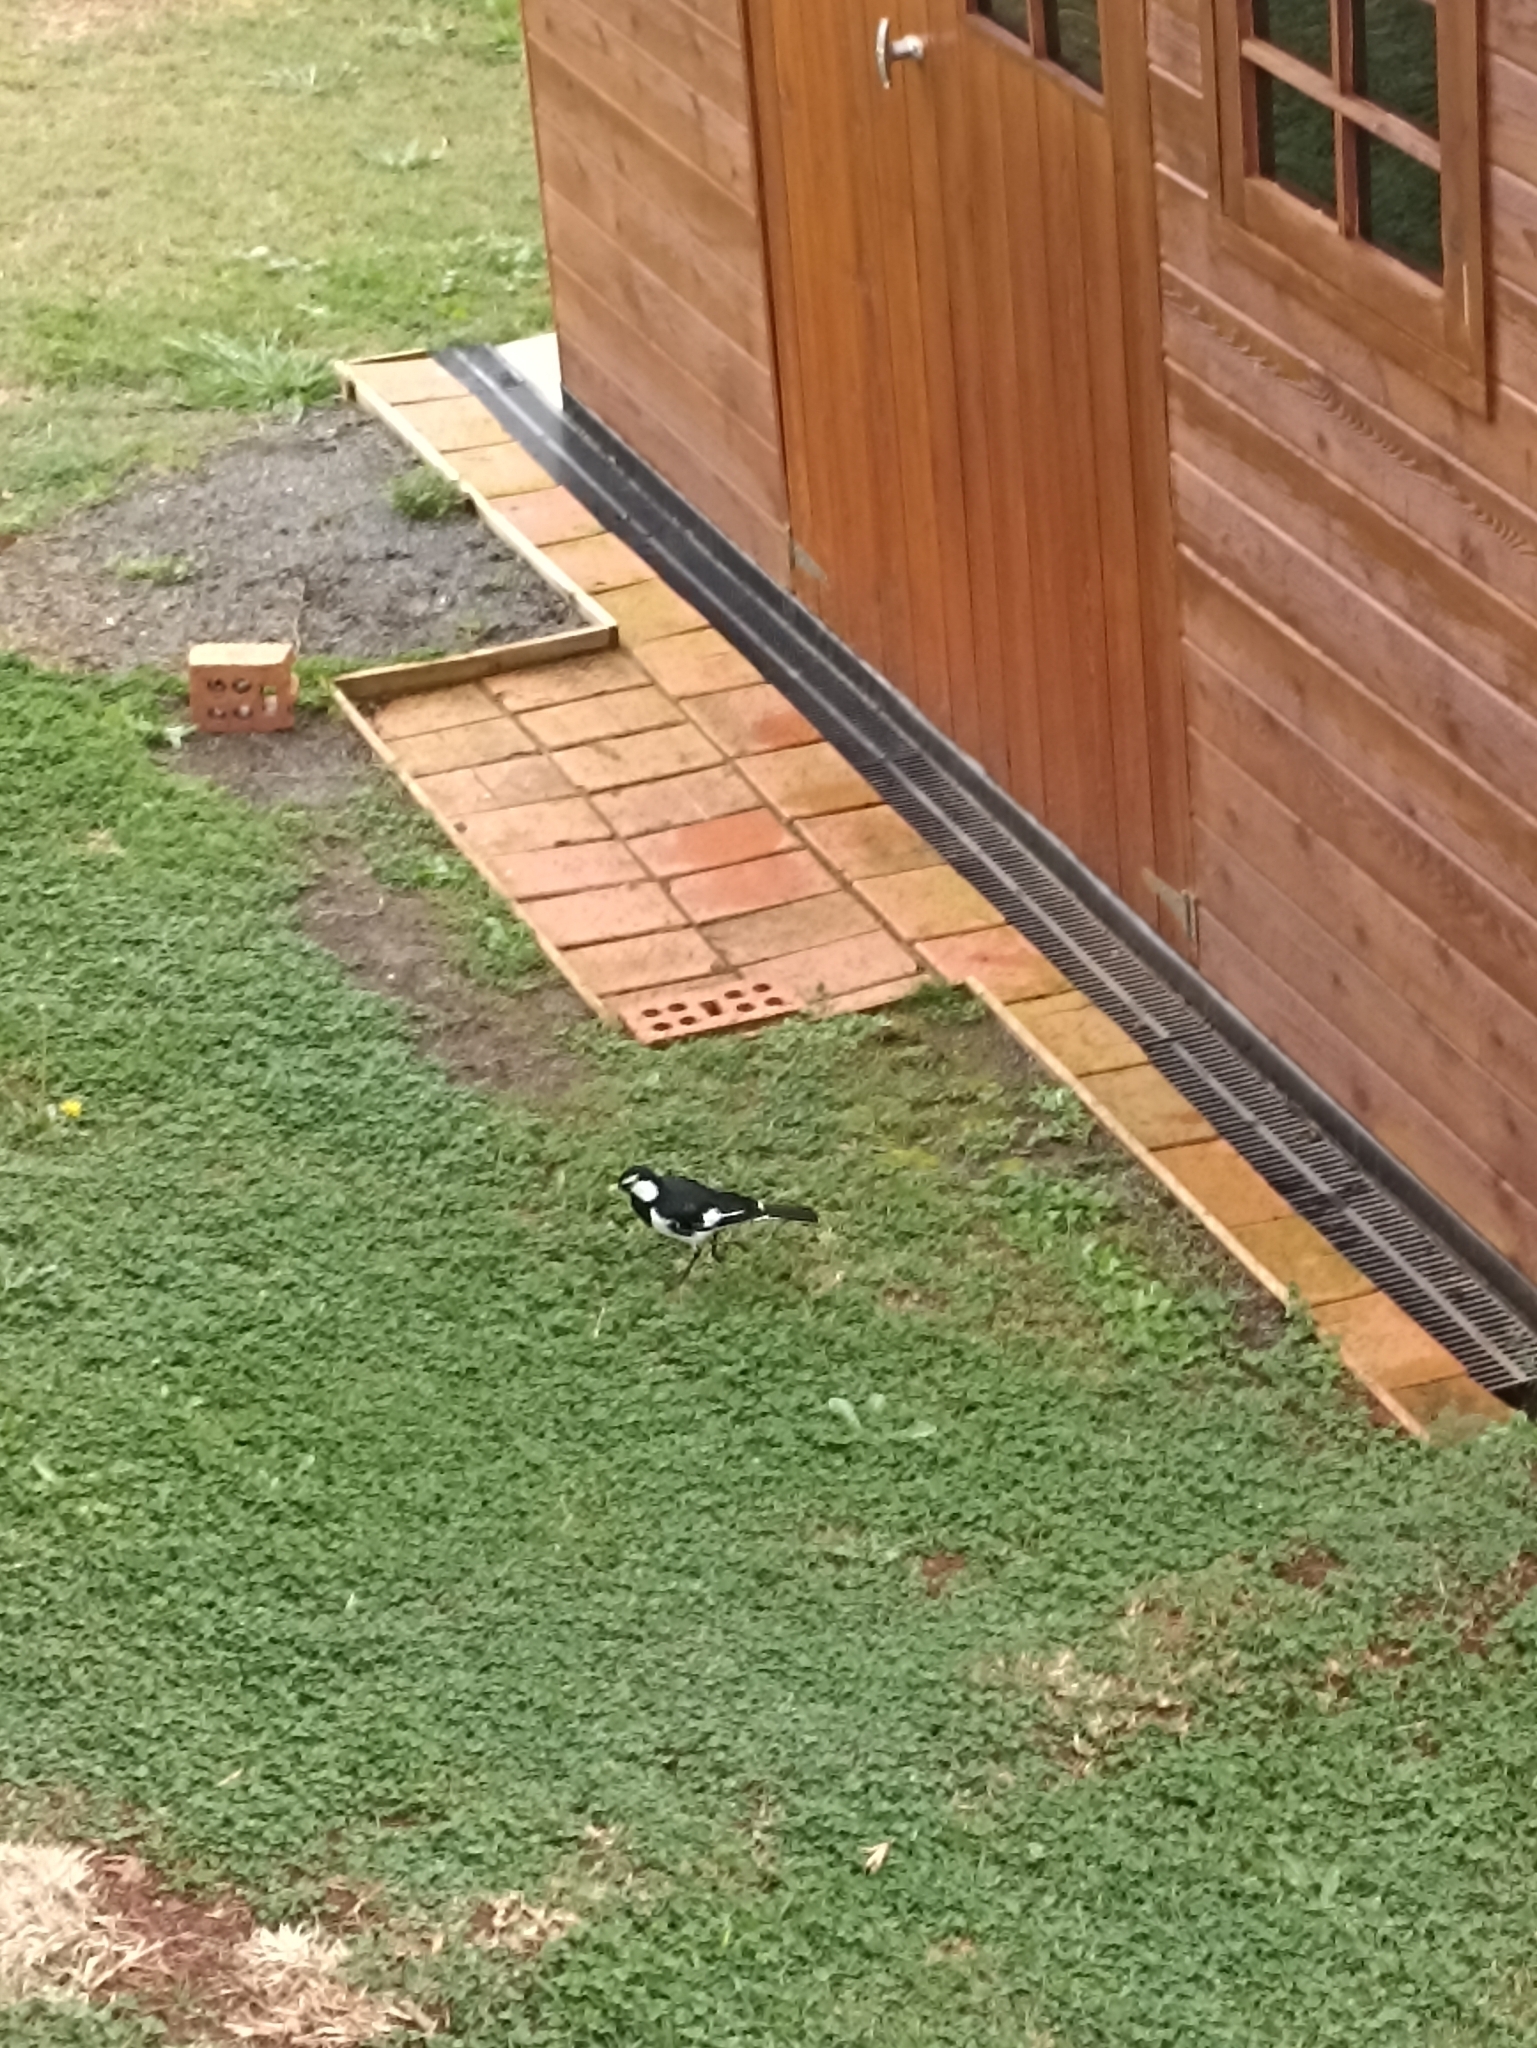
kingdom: Animalia
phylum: Chordata
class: Aves
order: Passeriformes
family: Monarchidae
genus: Grallina
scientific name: Grallina cyanoleuca
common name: Magpie-lark
